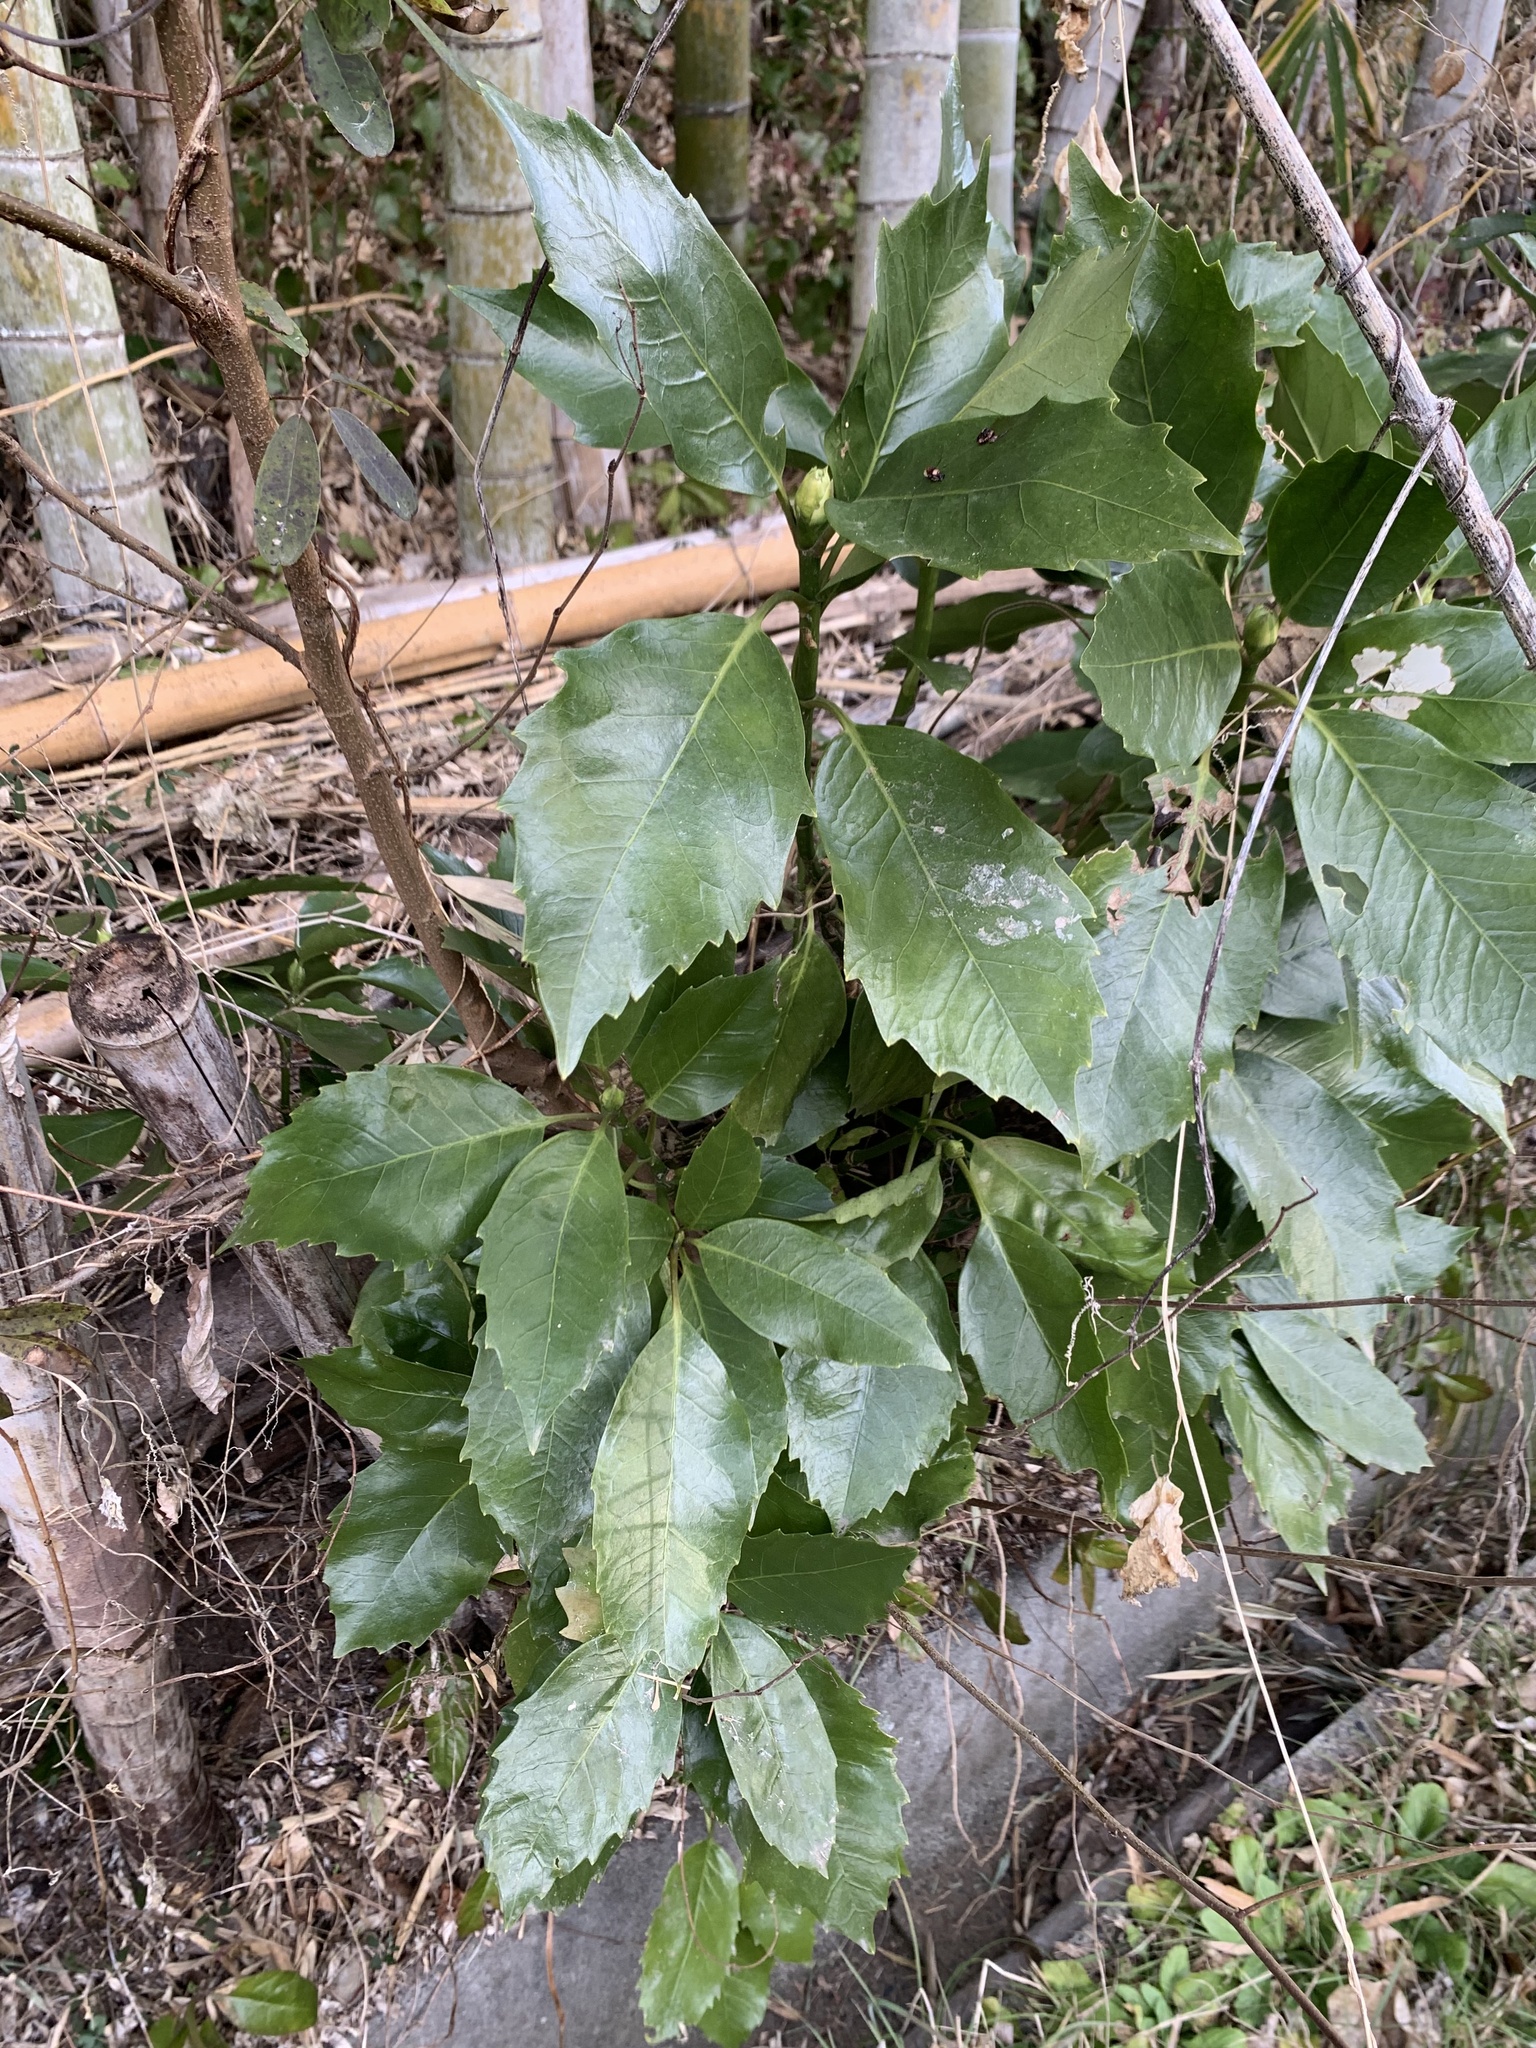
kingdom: Plantae
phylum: Tracheophyta
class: Magnoliopsida
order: Garryales
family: Garryaceae
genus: Aucuba
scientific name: Aucuba japonica
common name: Spotted-laurel
